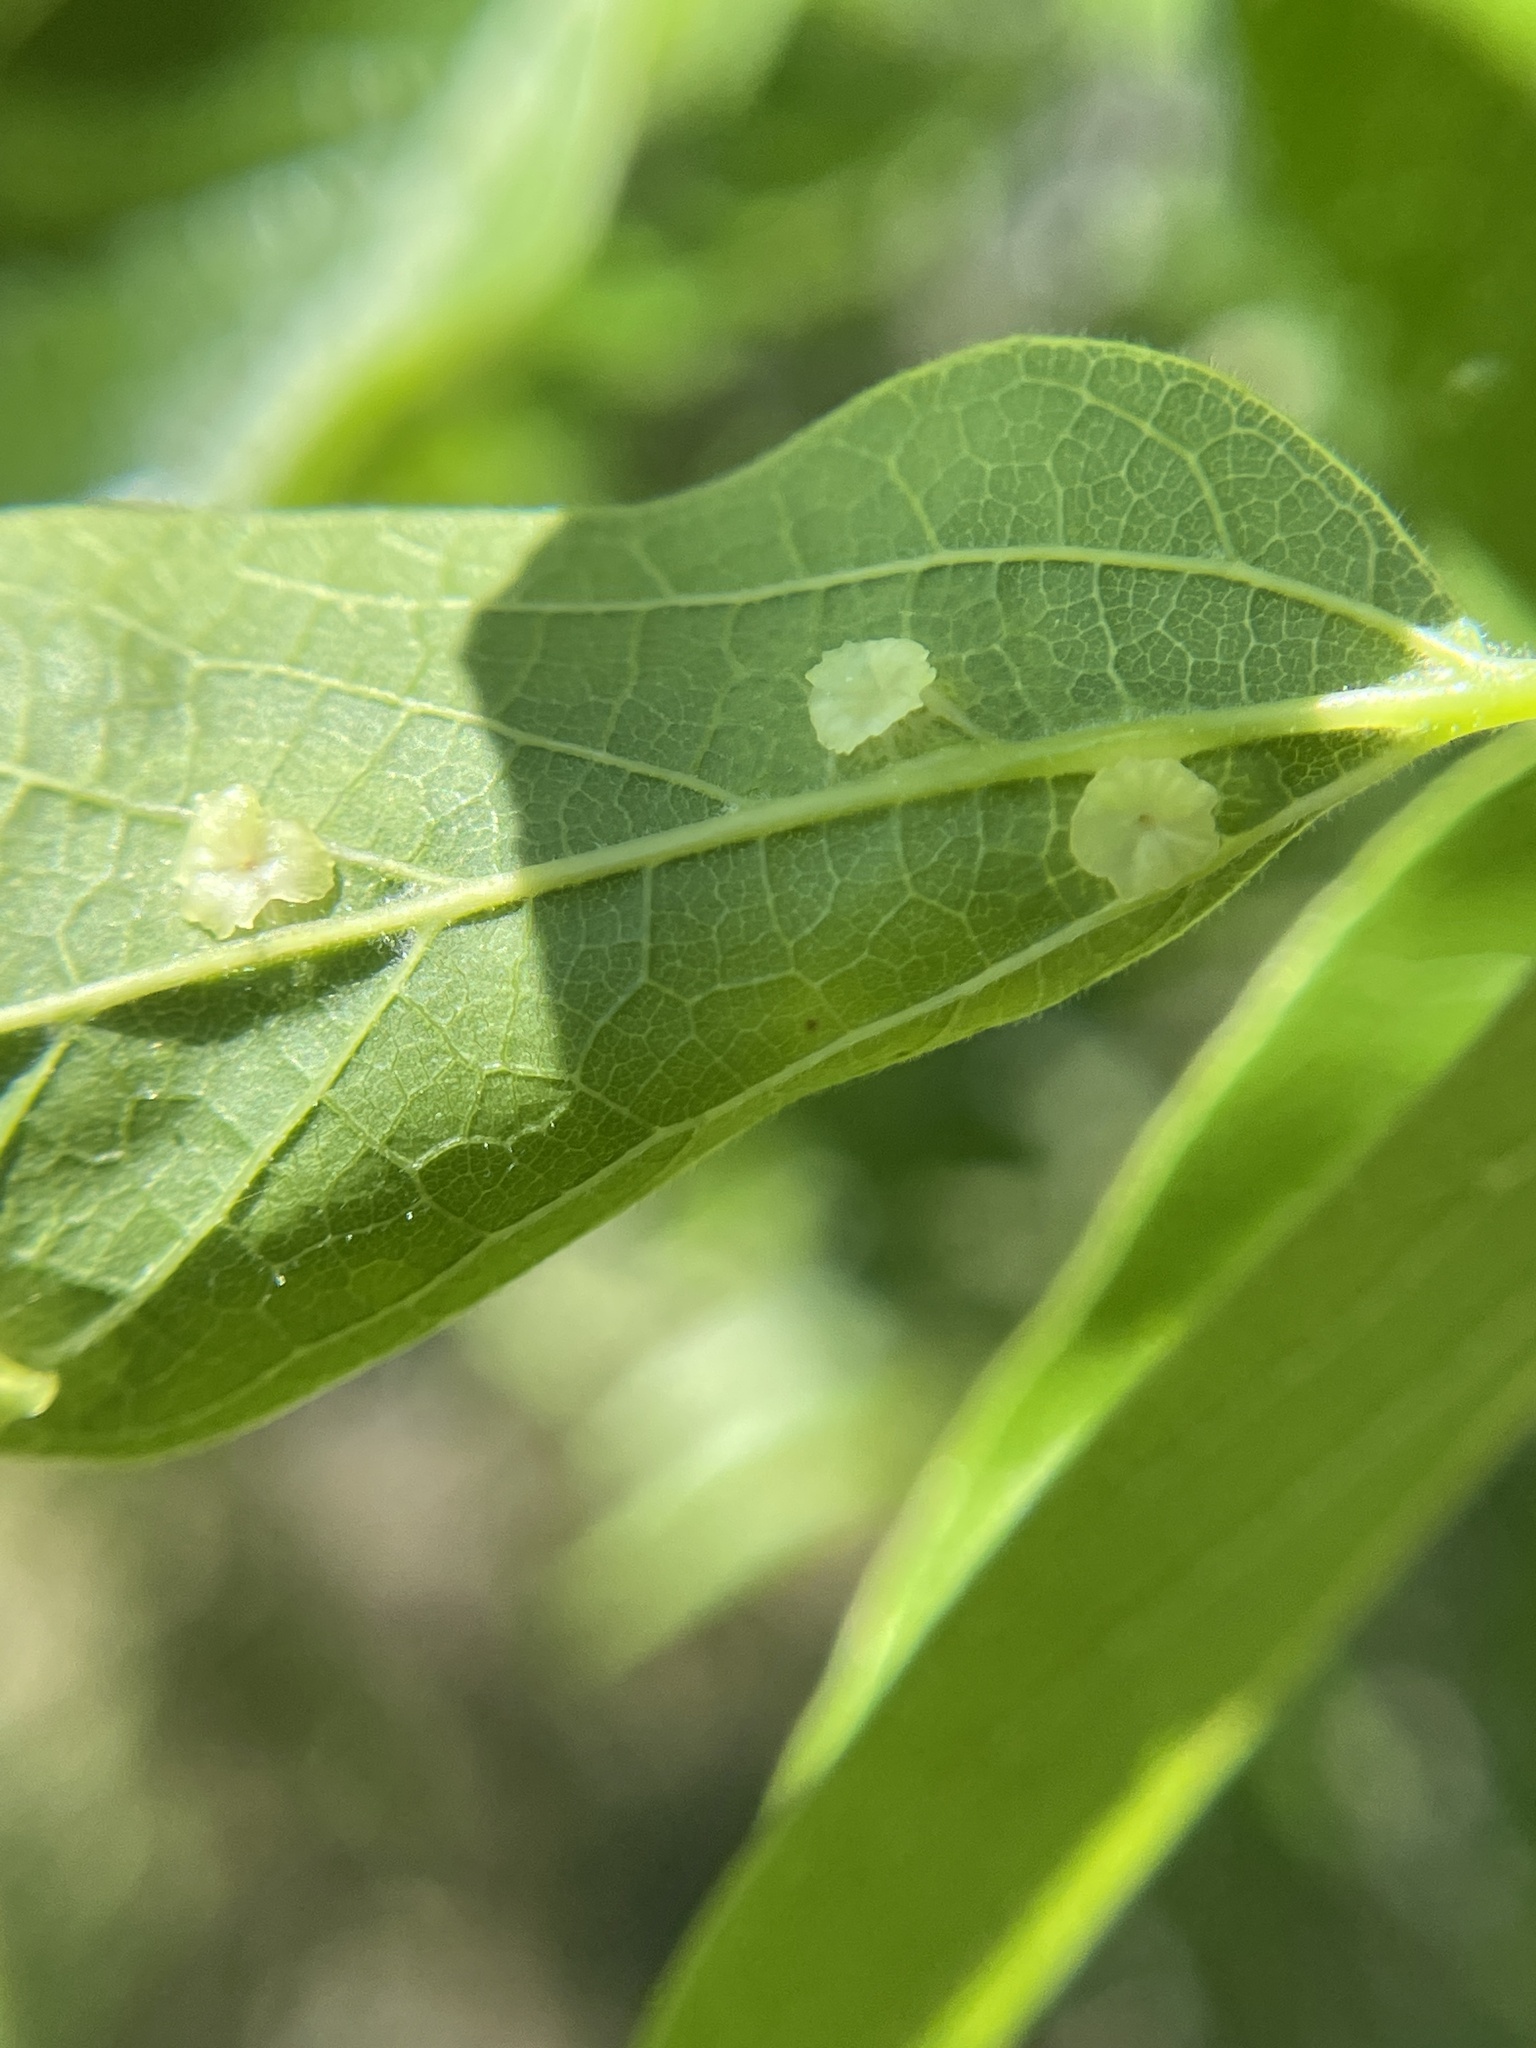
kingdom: Animalia
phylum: Arthropoda
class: Insecta
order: Hemiptera
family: Aphalaridae
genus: Pachypsylla
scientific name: Pachypsylla celtidisasterisca
